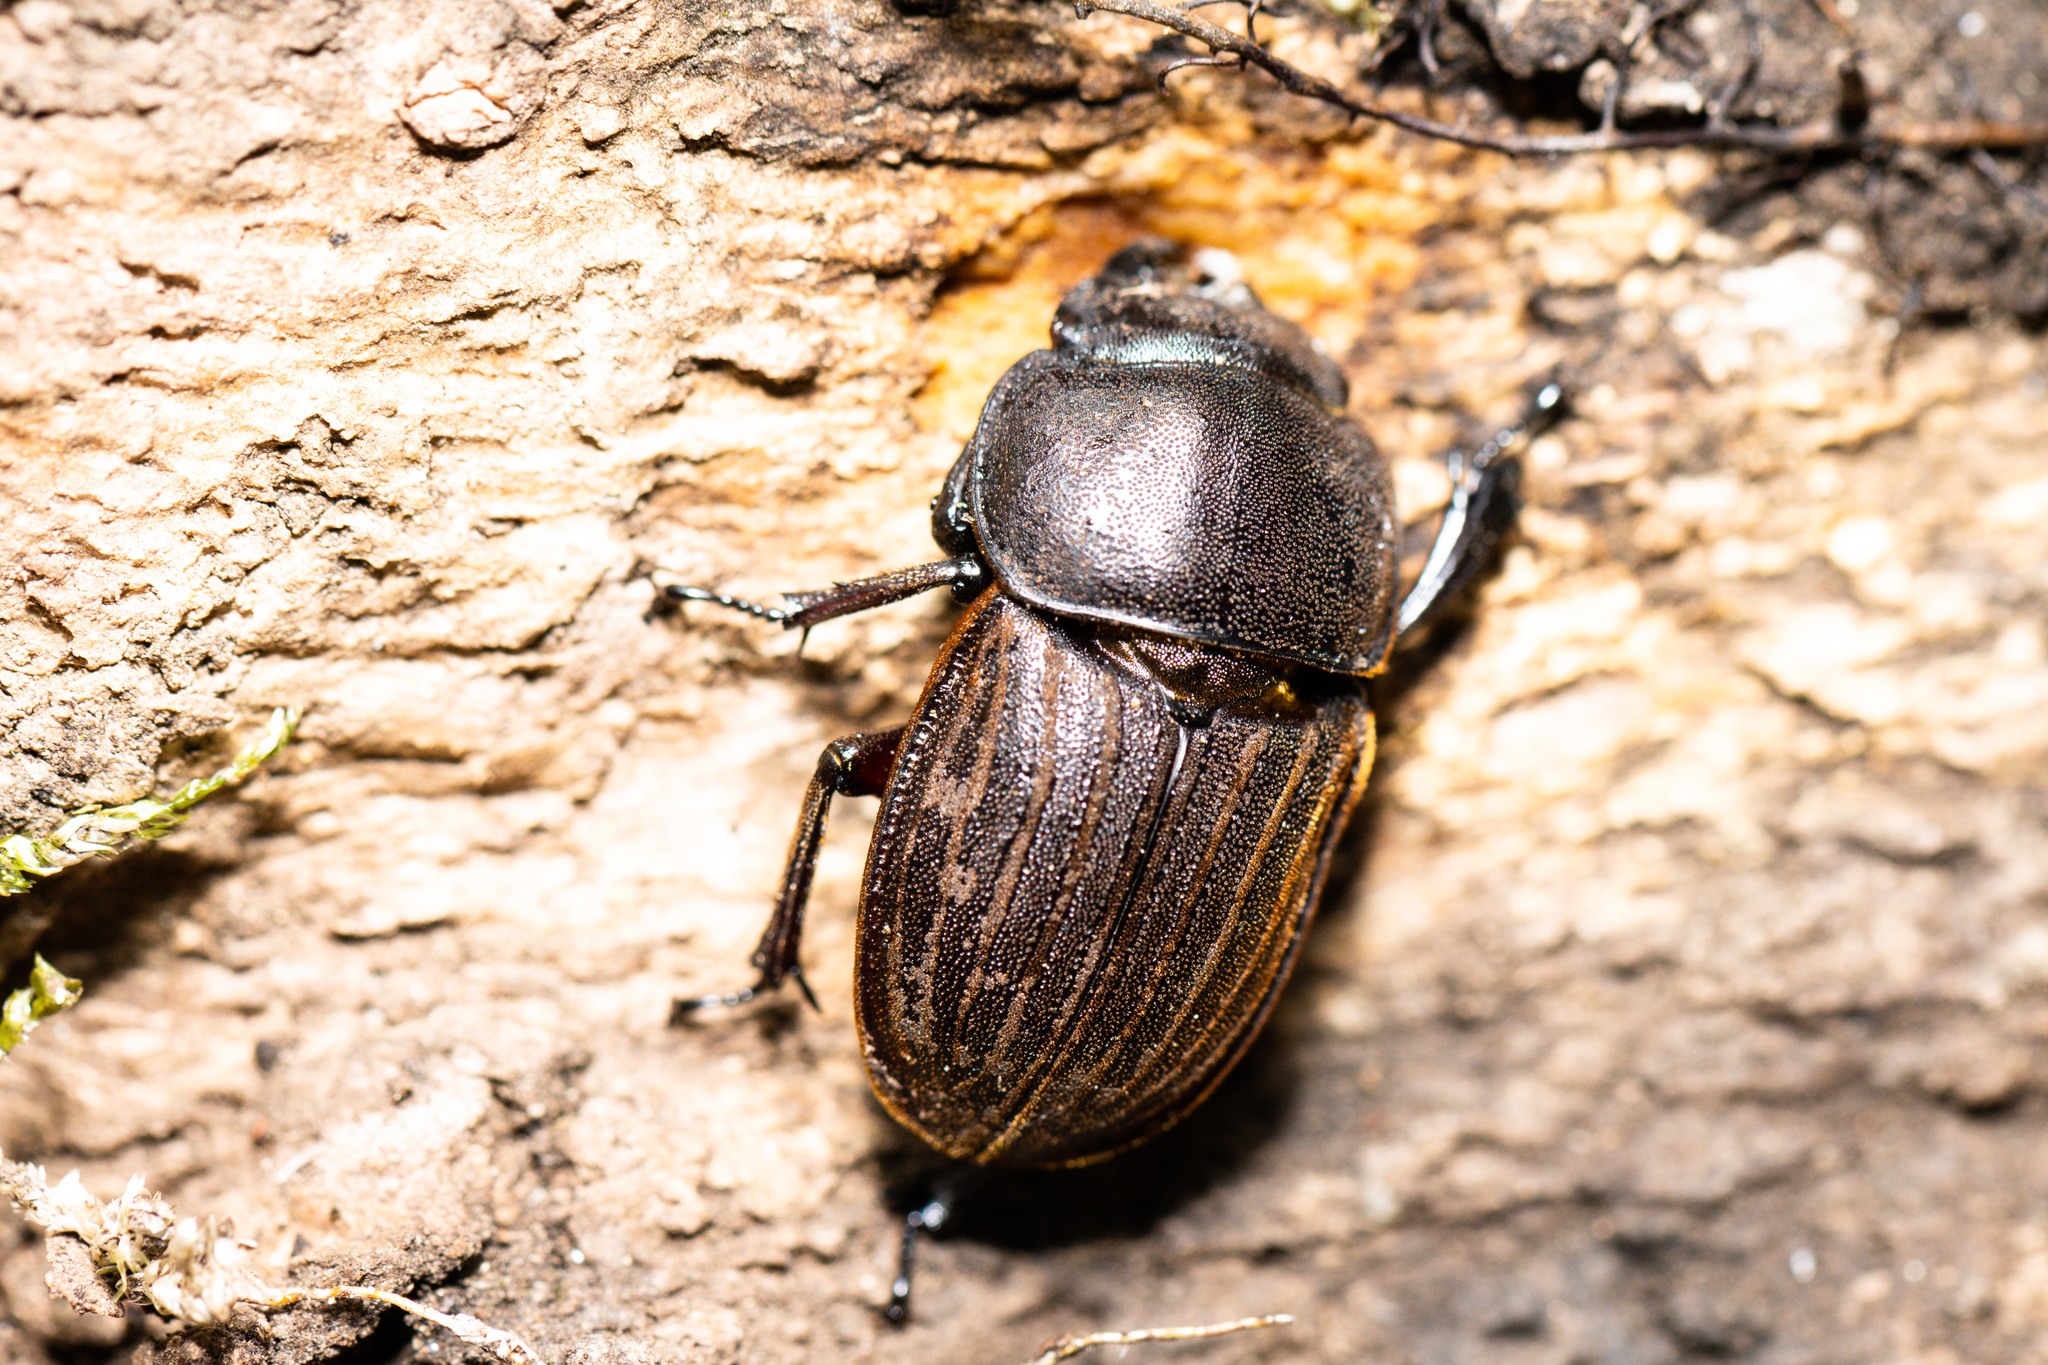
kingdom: Animalia
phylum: Arthropoda
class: Insecta
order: Coleoptera
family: Lucanidae
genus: Geodorcus
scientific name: Geodorcus helmsi
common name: Helm's stag beetle
